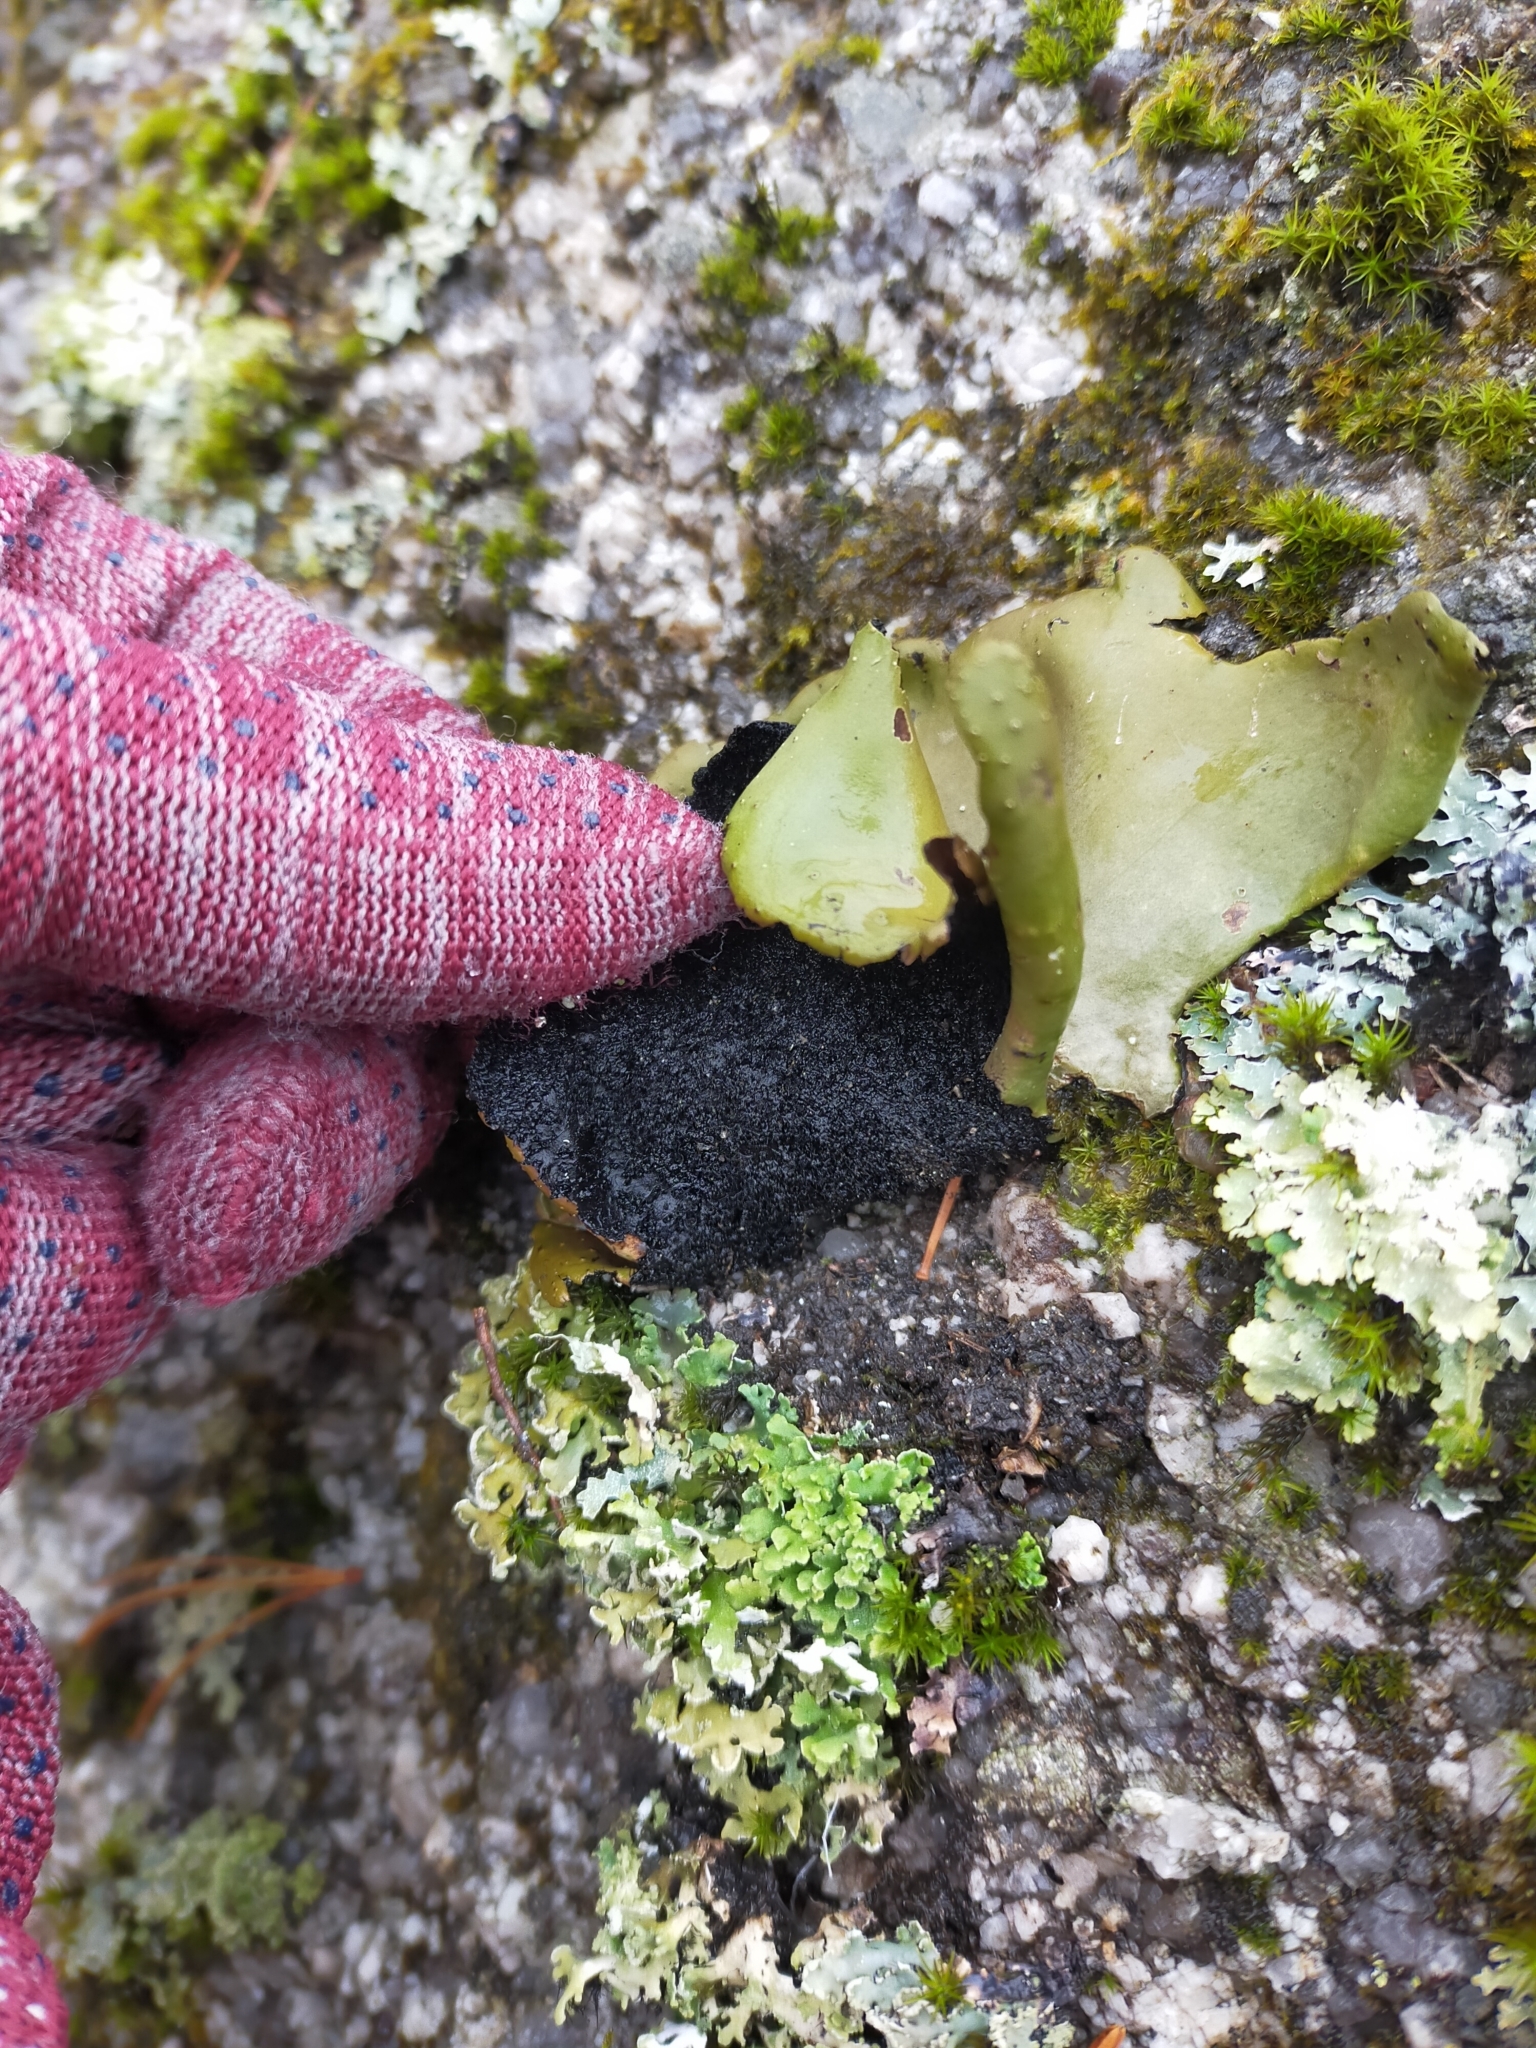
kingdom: Fungi
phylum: Ascomycota
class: Lecanoromycetes
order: Umbilicariales
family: Umbilicariaceae
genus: Umbilicaria
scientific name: Umbilicaria mammulata
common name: Smooth rock tripe
